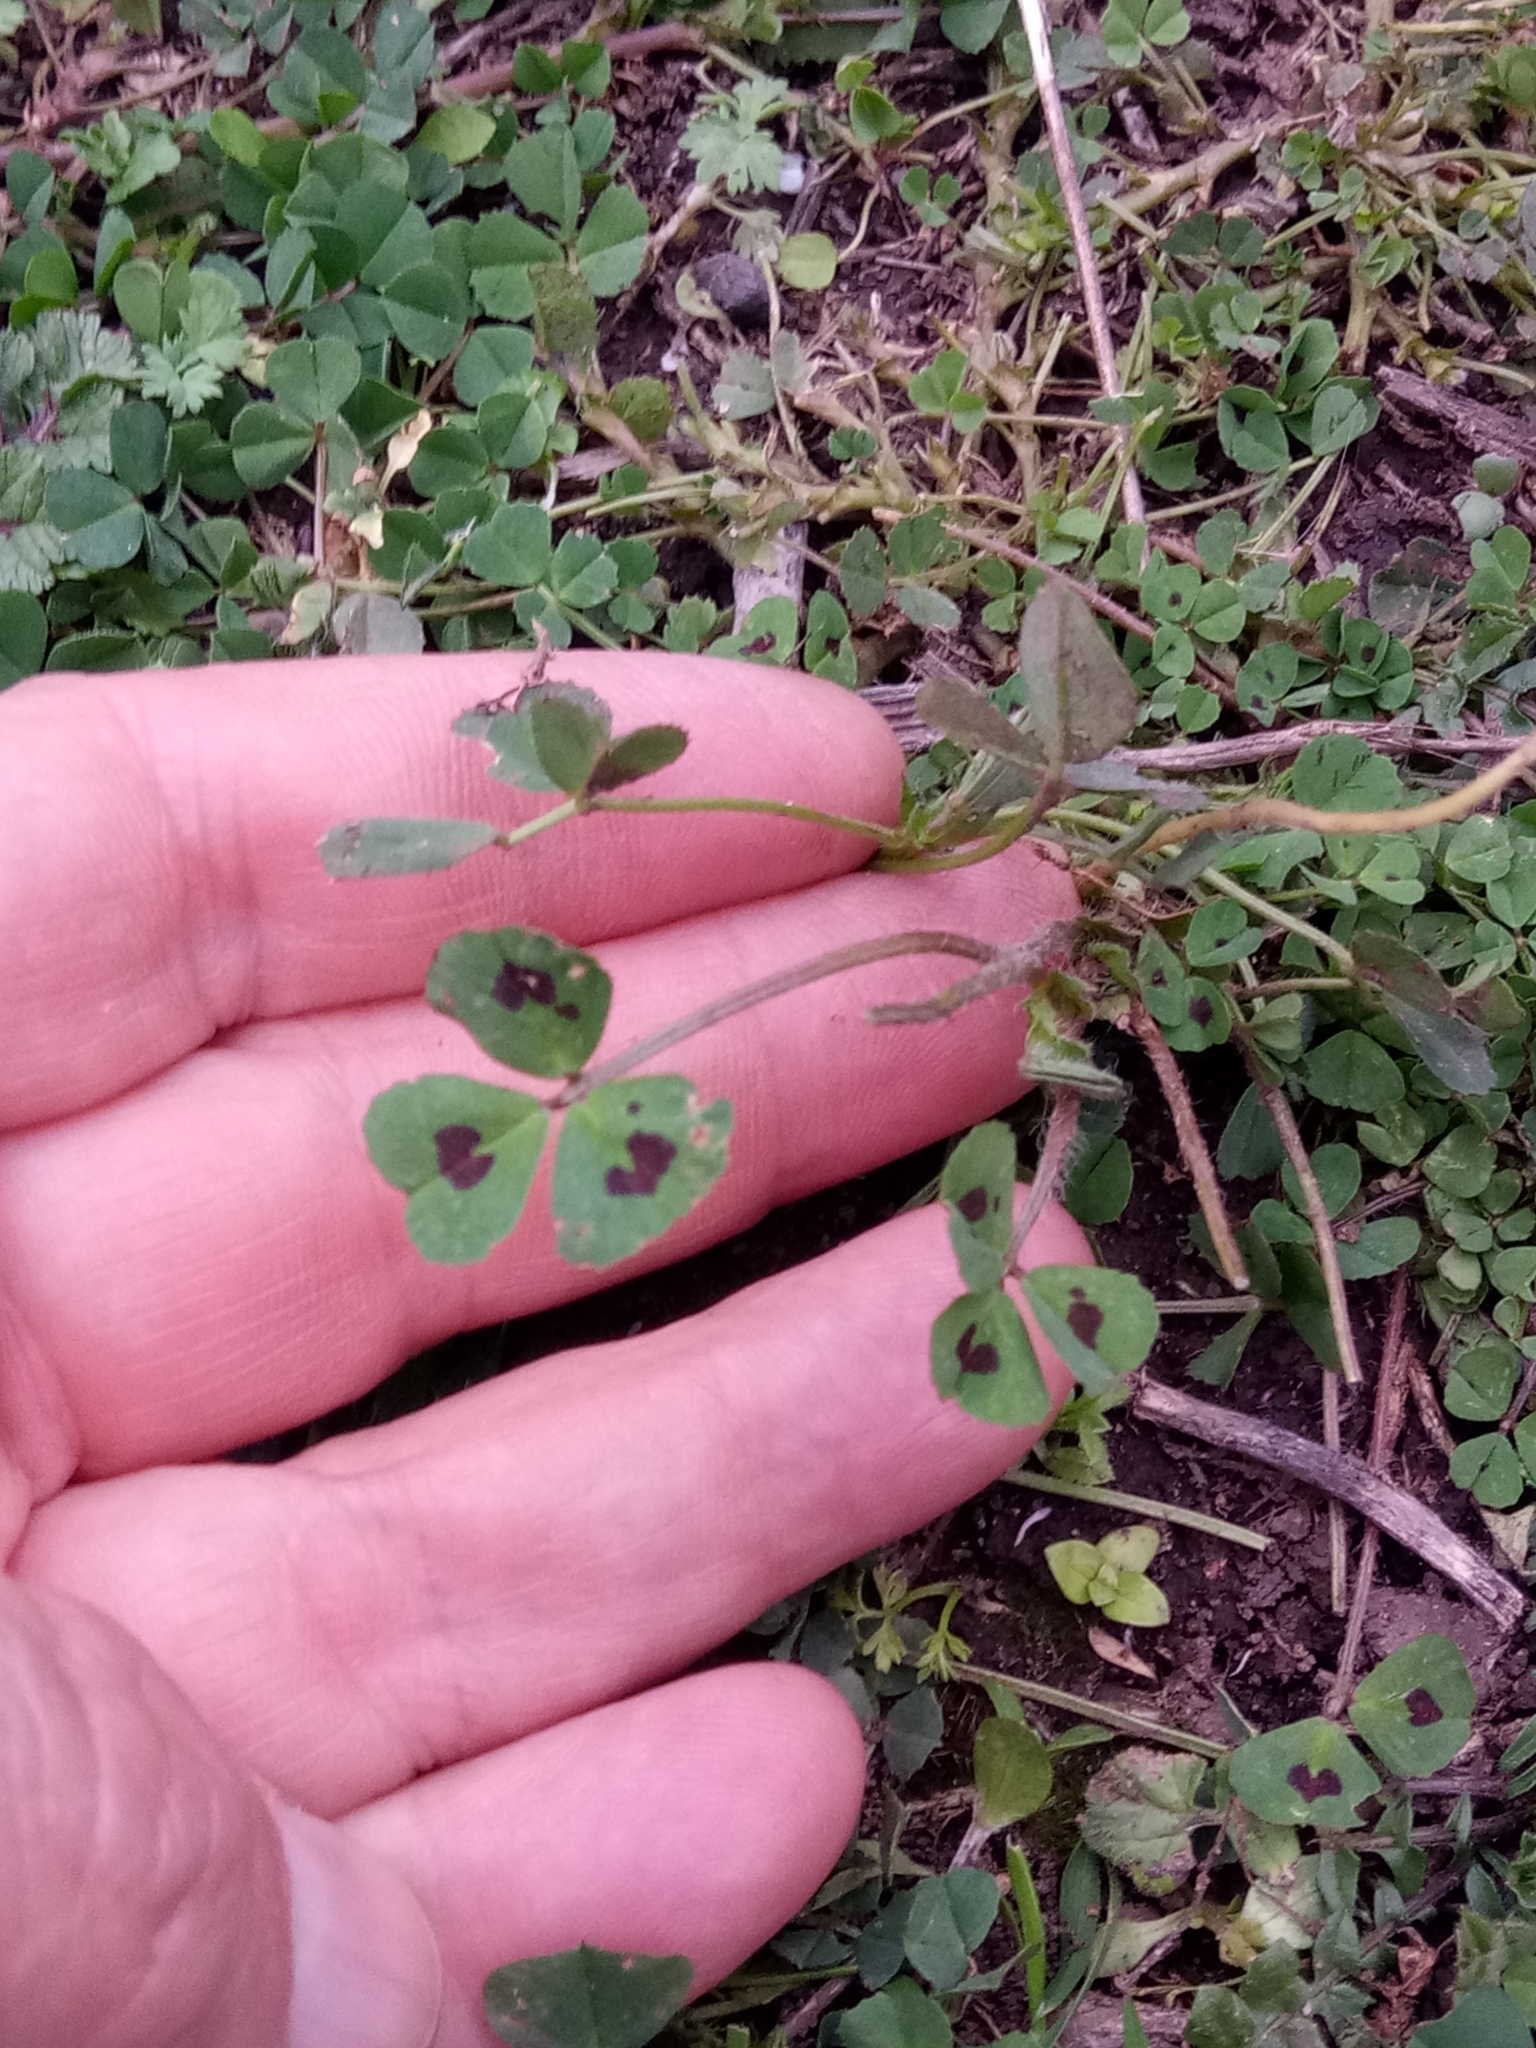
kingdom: Plantae
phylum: Tracheophyta
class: Magnoliopsida
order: Fabales
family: Fabaceae
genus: Medicago
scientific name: Medicago arabica
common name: Spotted medick
